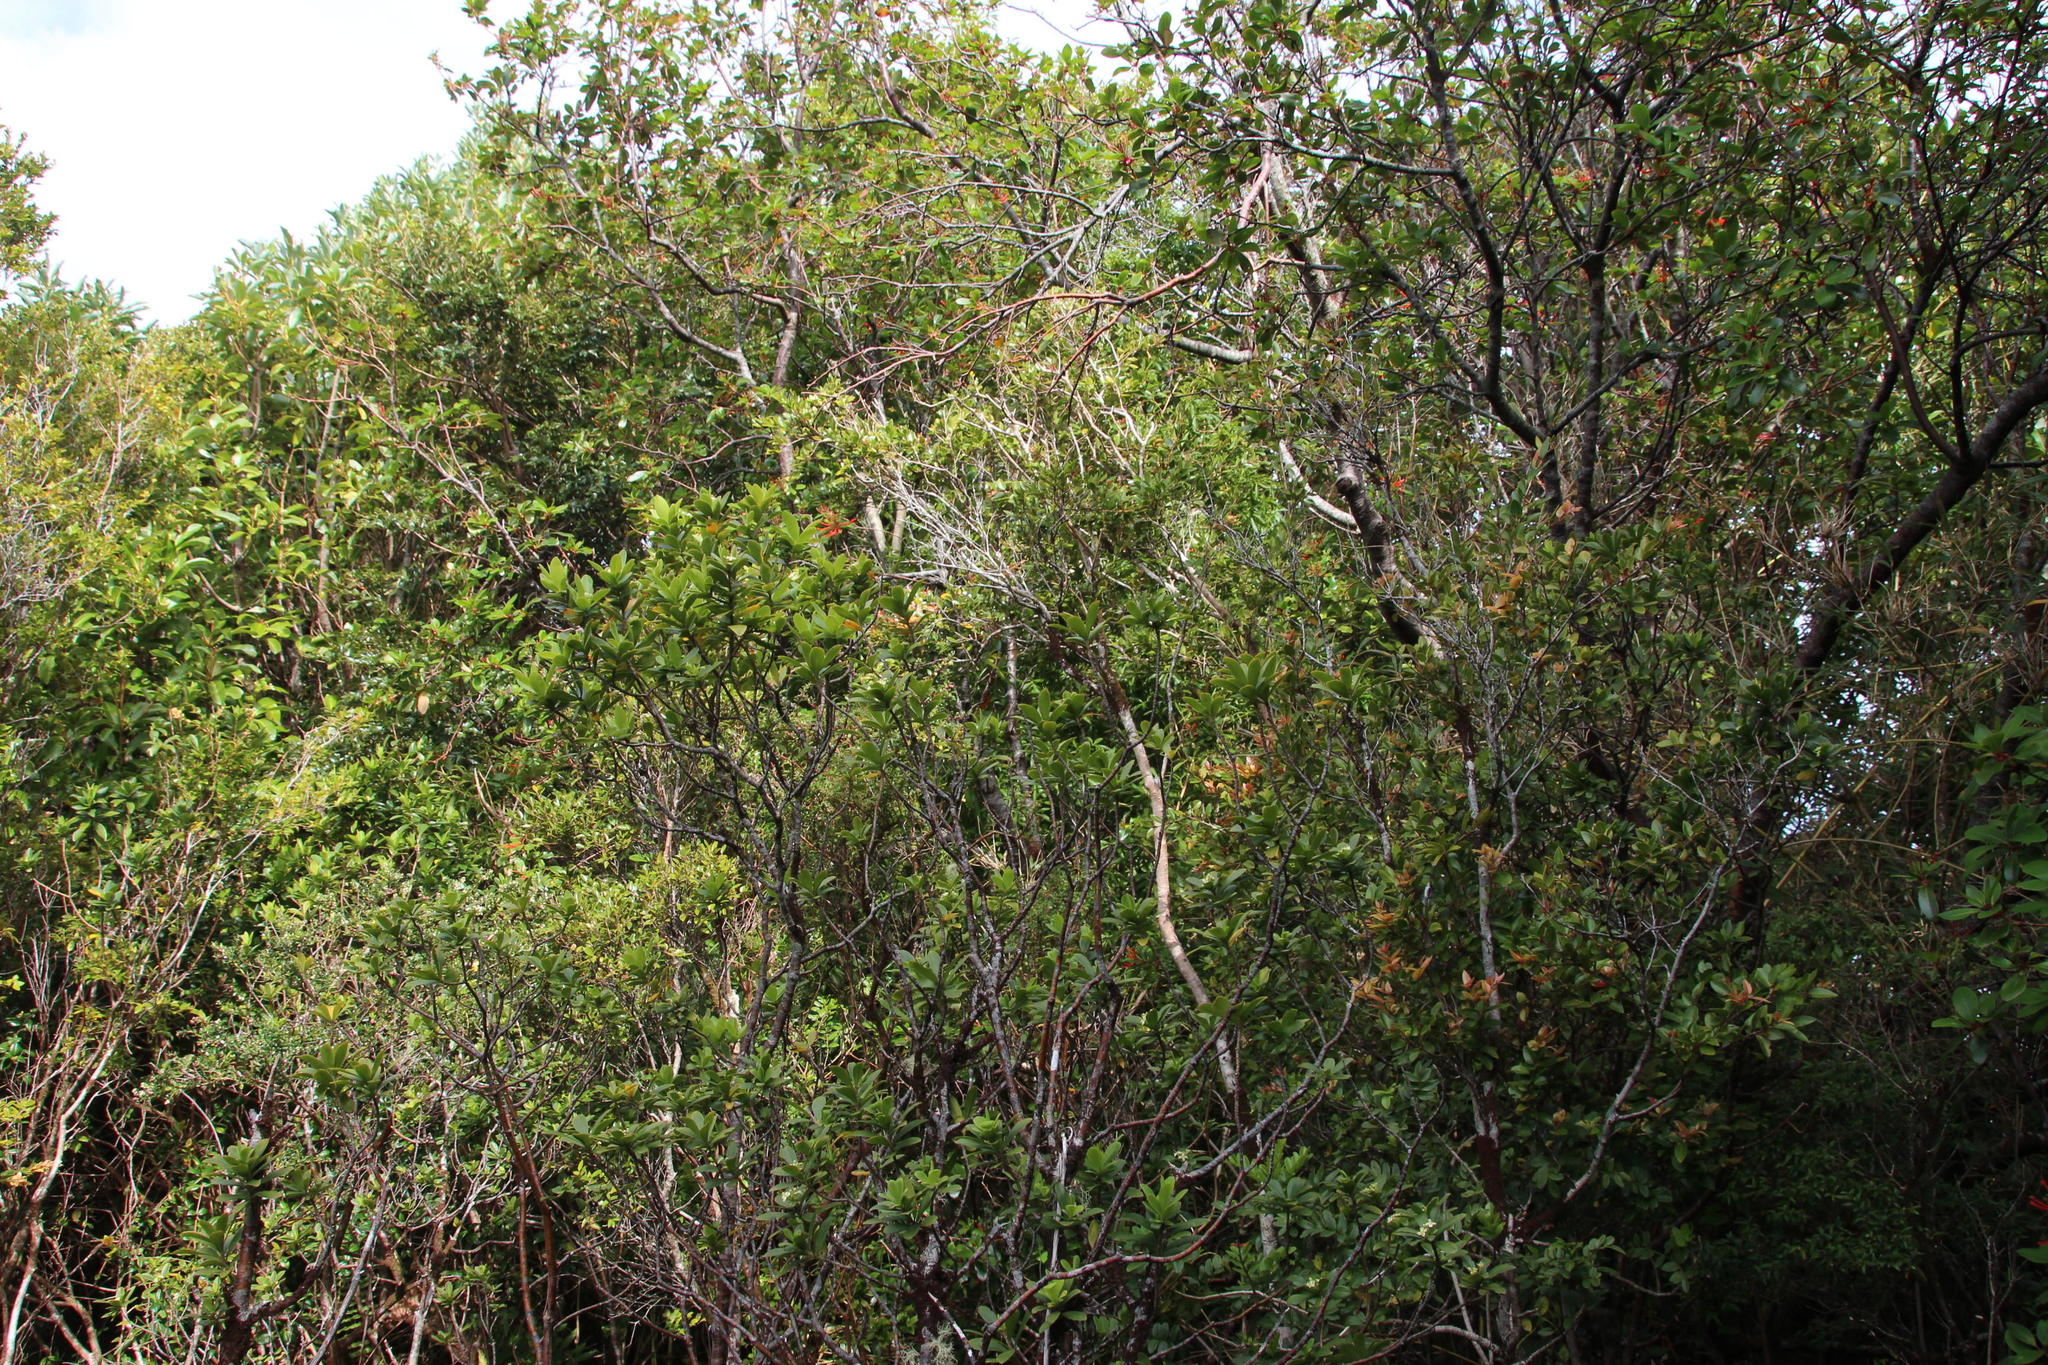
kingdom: Plantae
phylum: Tracheophyta
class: Magnoliopsida
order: Proteales
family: Proteaceae
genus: Embothrium
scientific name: Embothrium coccineum
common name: Chilean firebush
